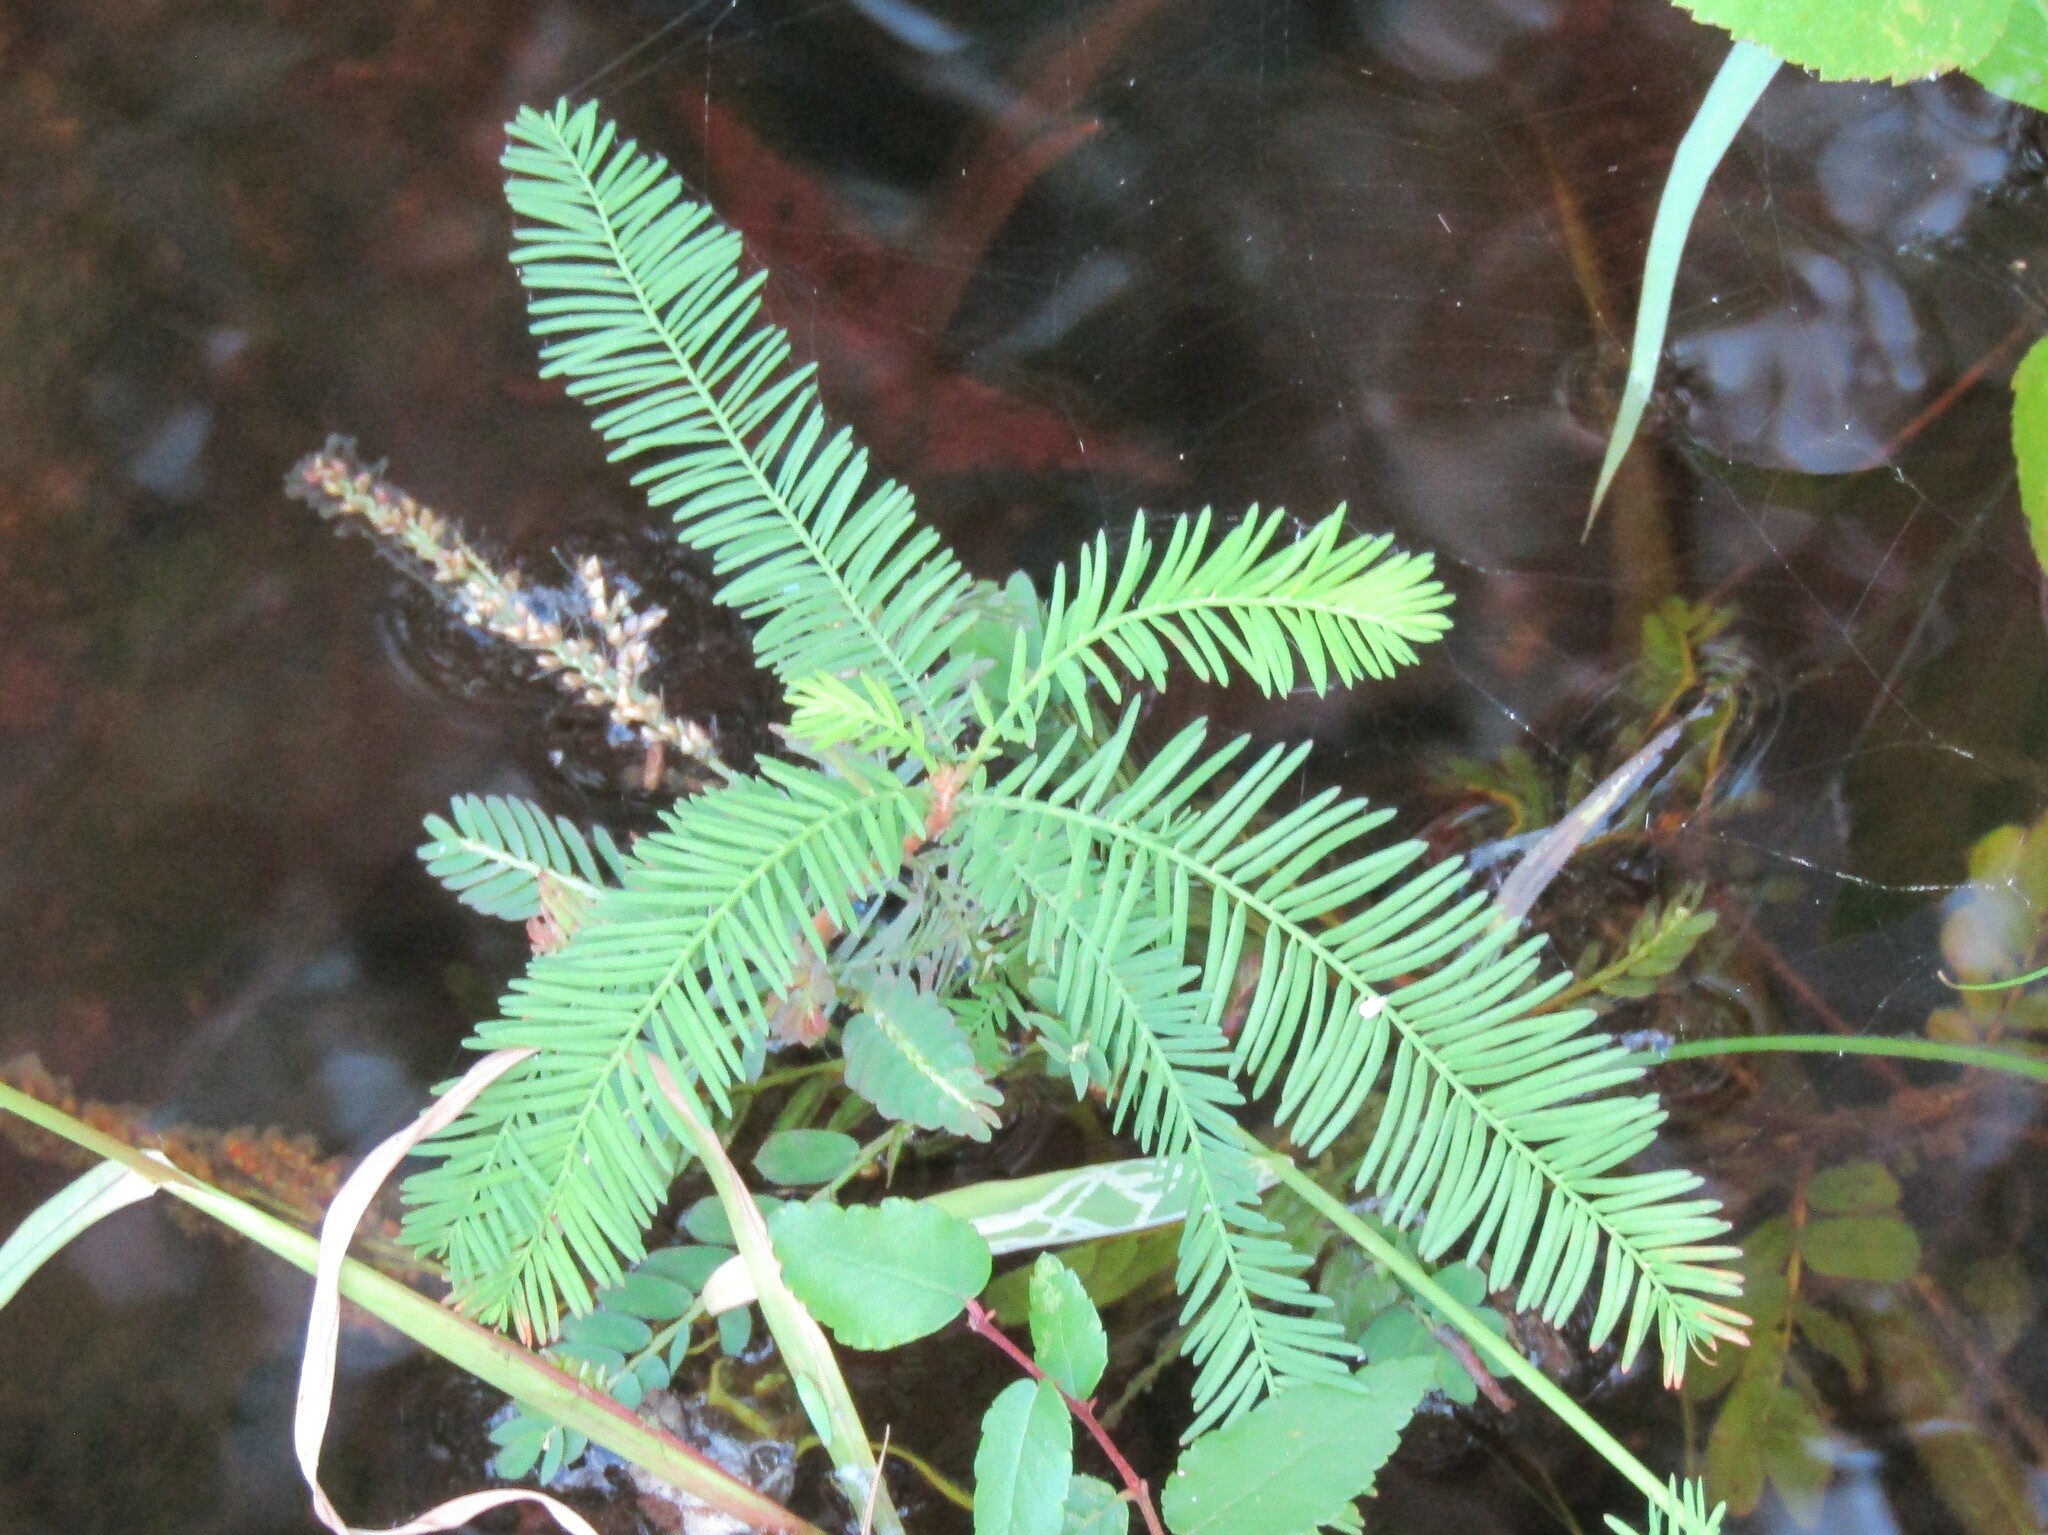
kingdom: Plantae
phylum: Tracheophyta
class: Pinopsida
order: Pinales
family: Cupressaceae
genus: Taxodium
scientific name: Taxodium distichum
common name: Bald cypress
